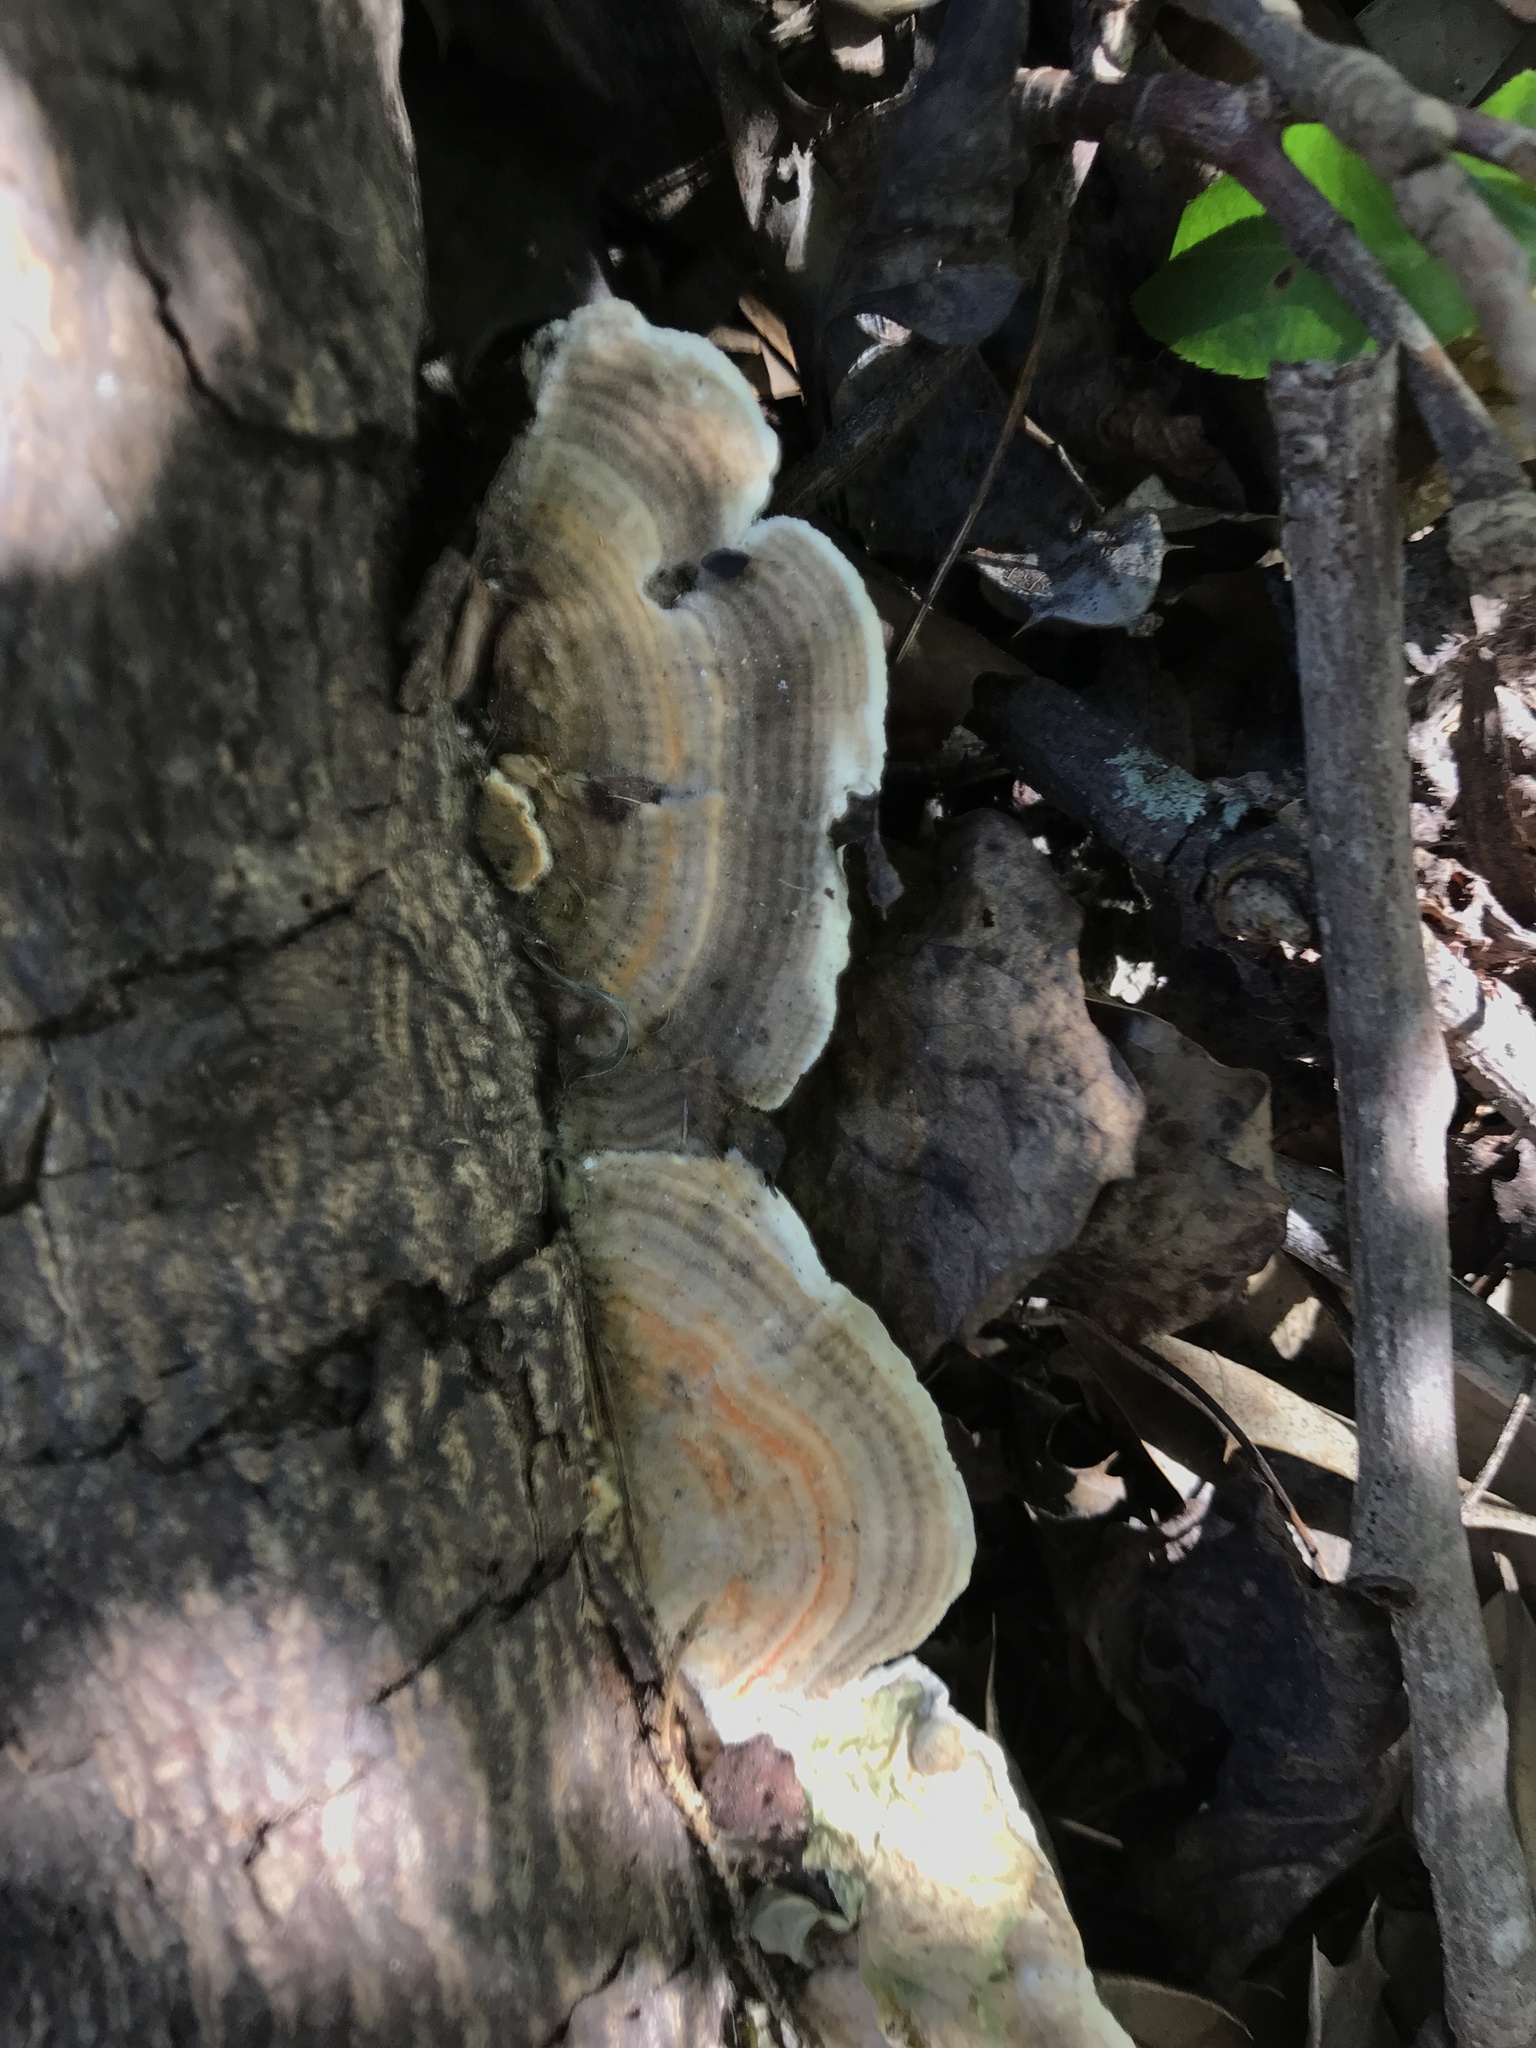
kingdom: Fungi
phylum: Basidiomycota
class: Agaricomycetes
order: Polyporales
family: Polyporaceae
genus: Trametes
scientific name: Trametes versicolor
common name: Turkeytail
